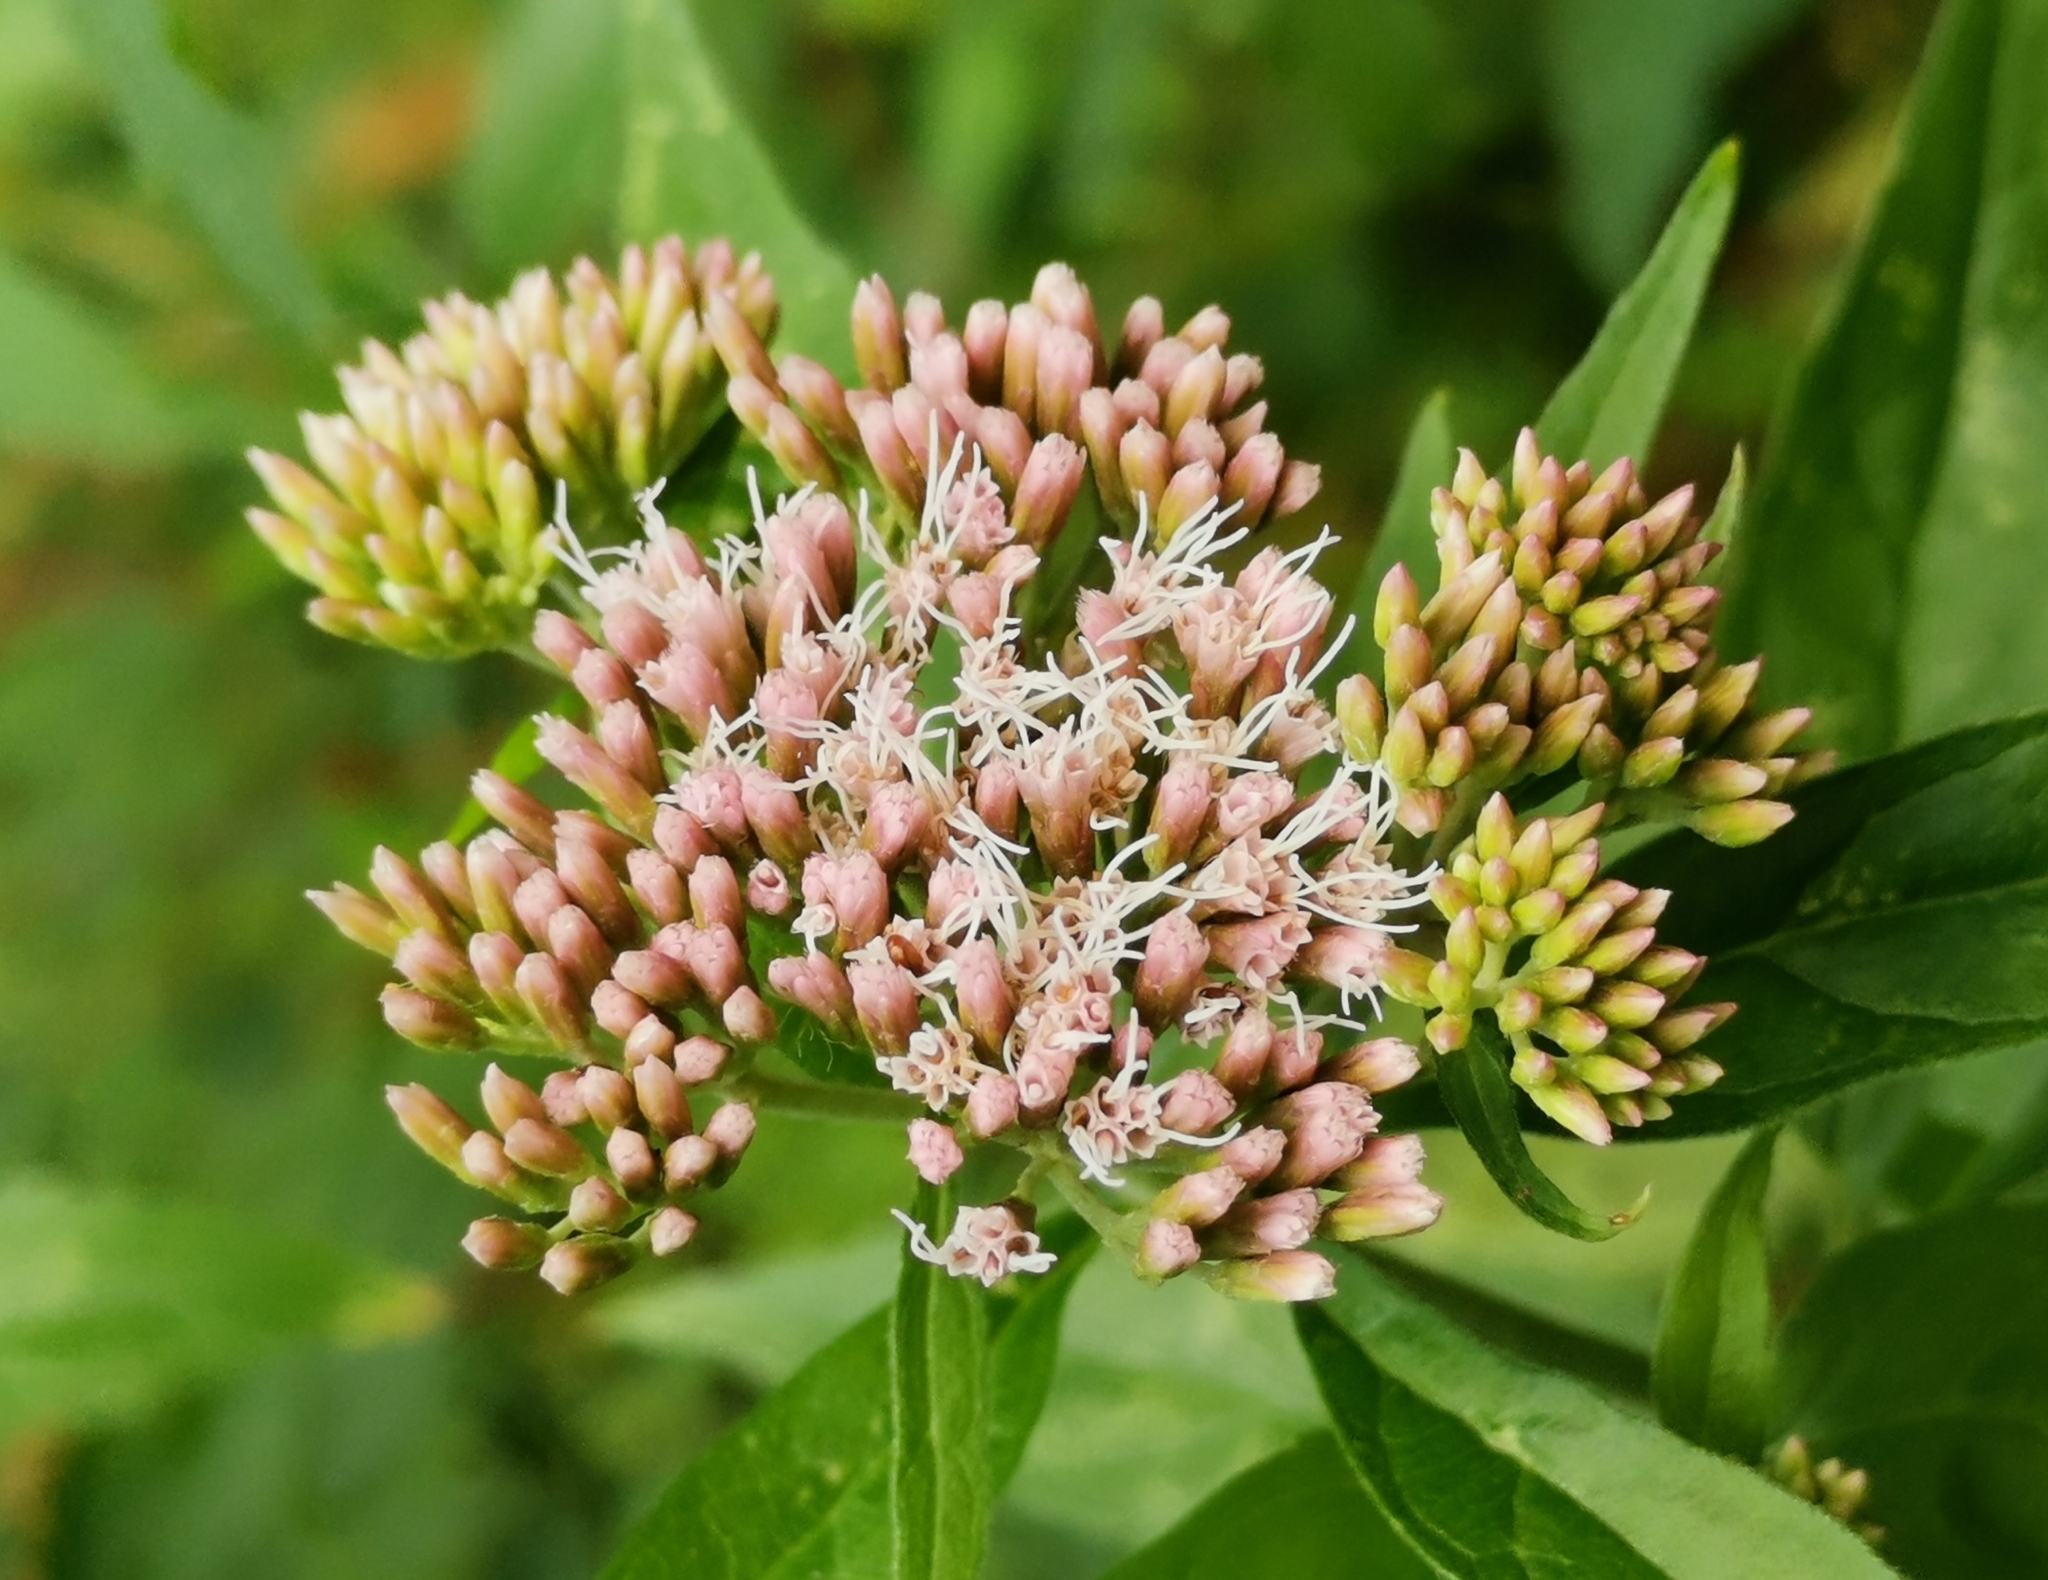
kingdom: Plantae
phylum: Tracheophyta
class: Magnoliopsida
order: Asterales
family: Asteraceae
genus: Eupatorium
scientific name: Eupatorium cannabinum
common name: Hemp-agrimony
